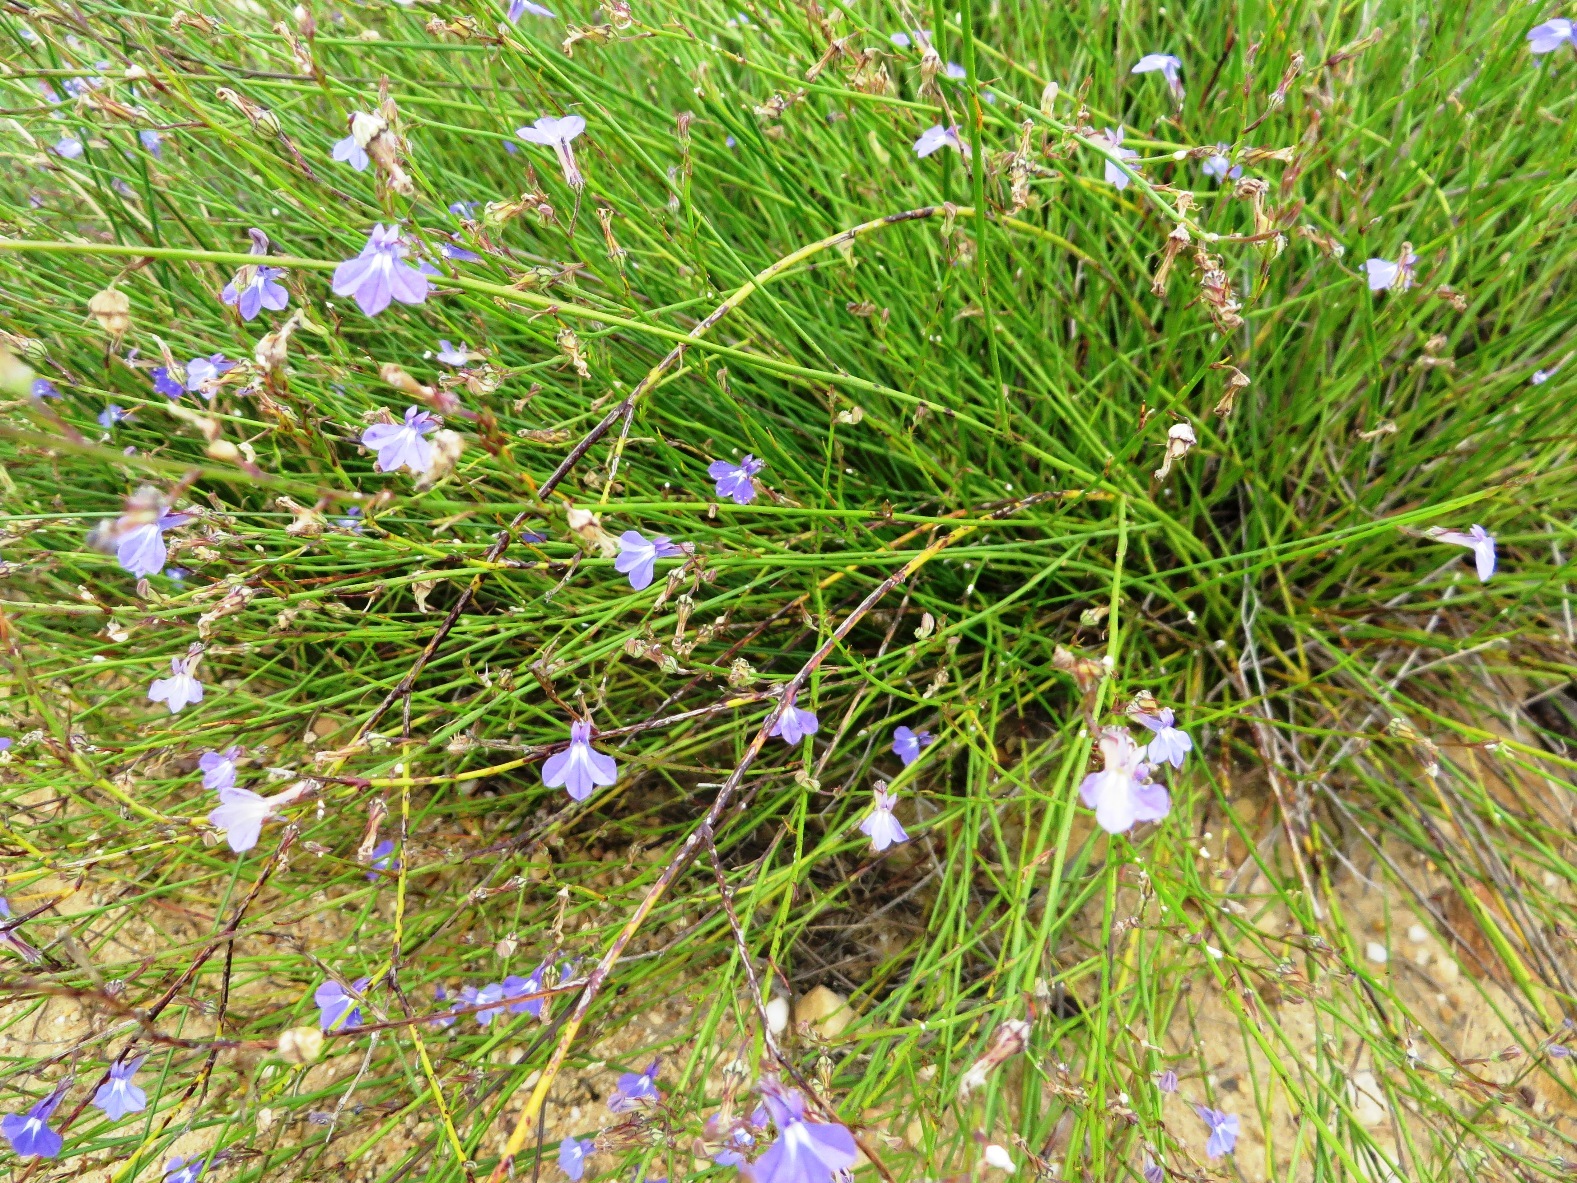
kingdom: Plantae
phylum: Tracheophyta
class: Magnoliopsida
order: Asterales
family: Campanulaceae
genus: Lobelia
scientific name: Lobelia capillifolia
